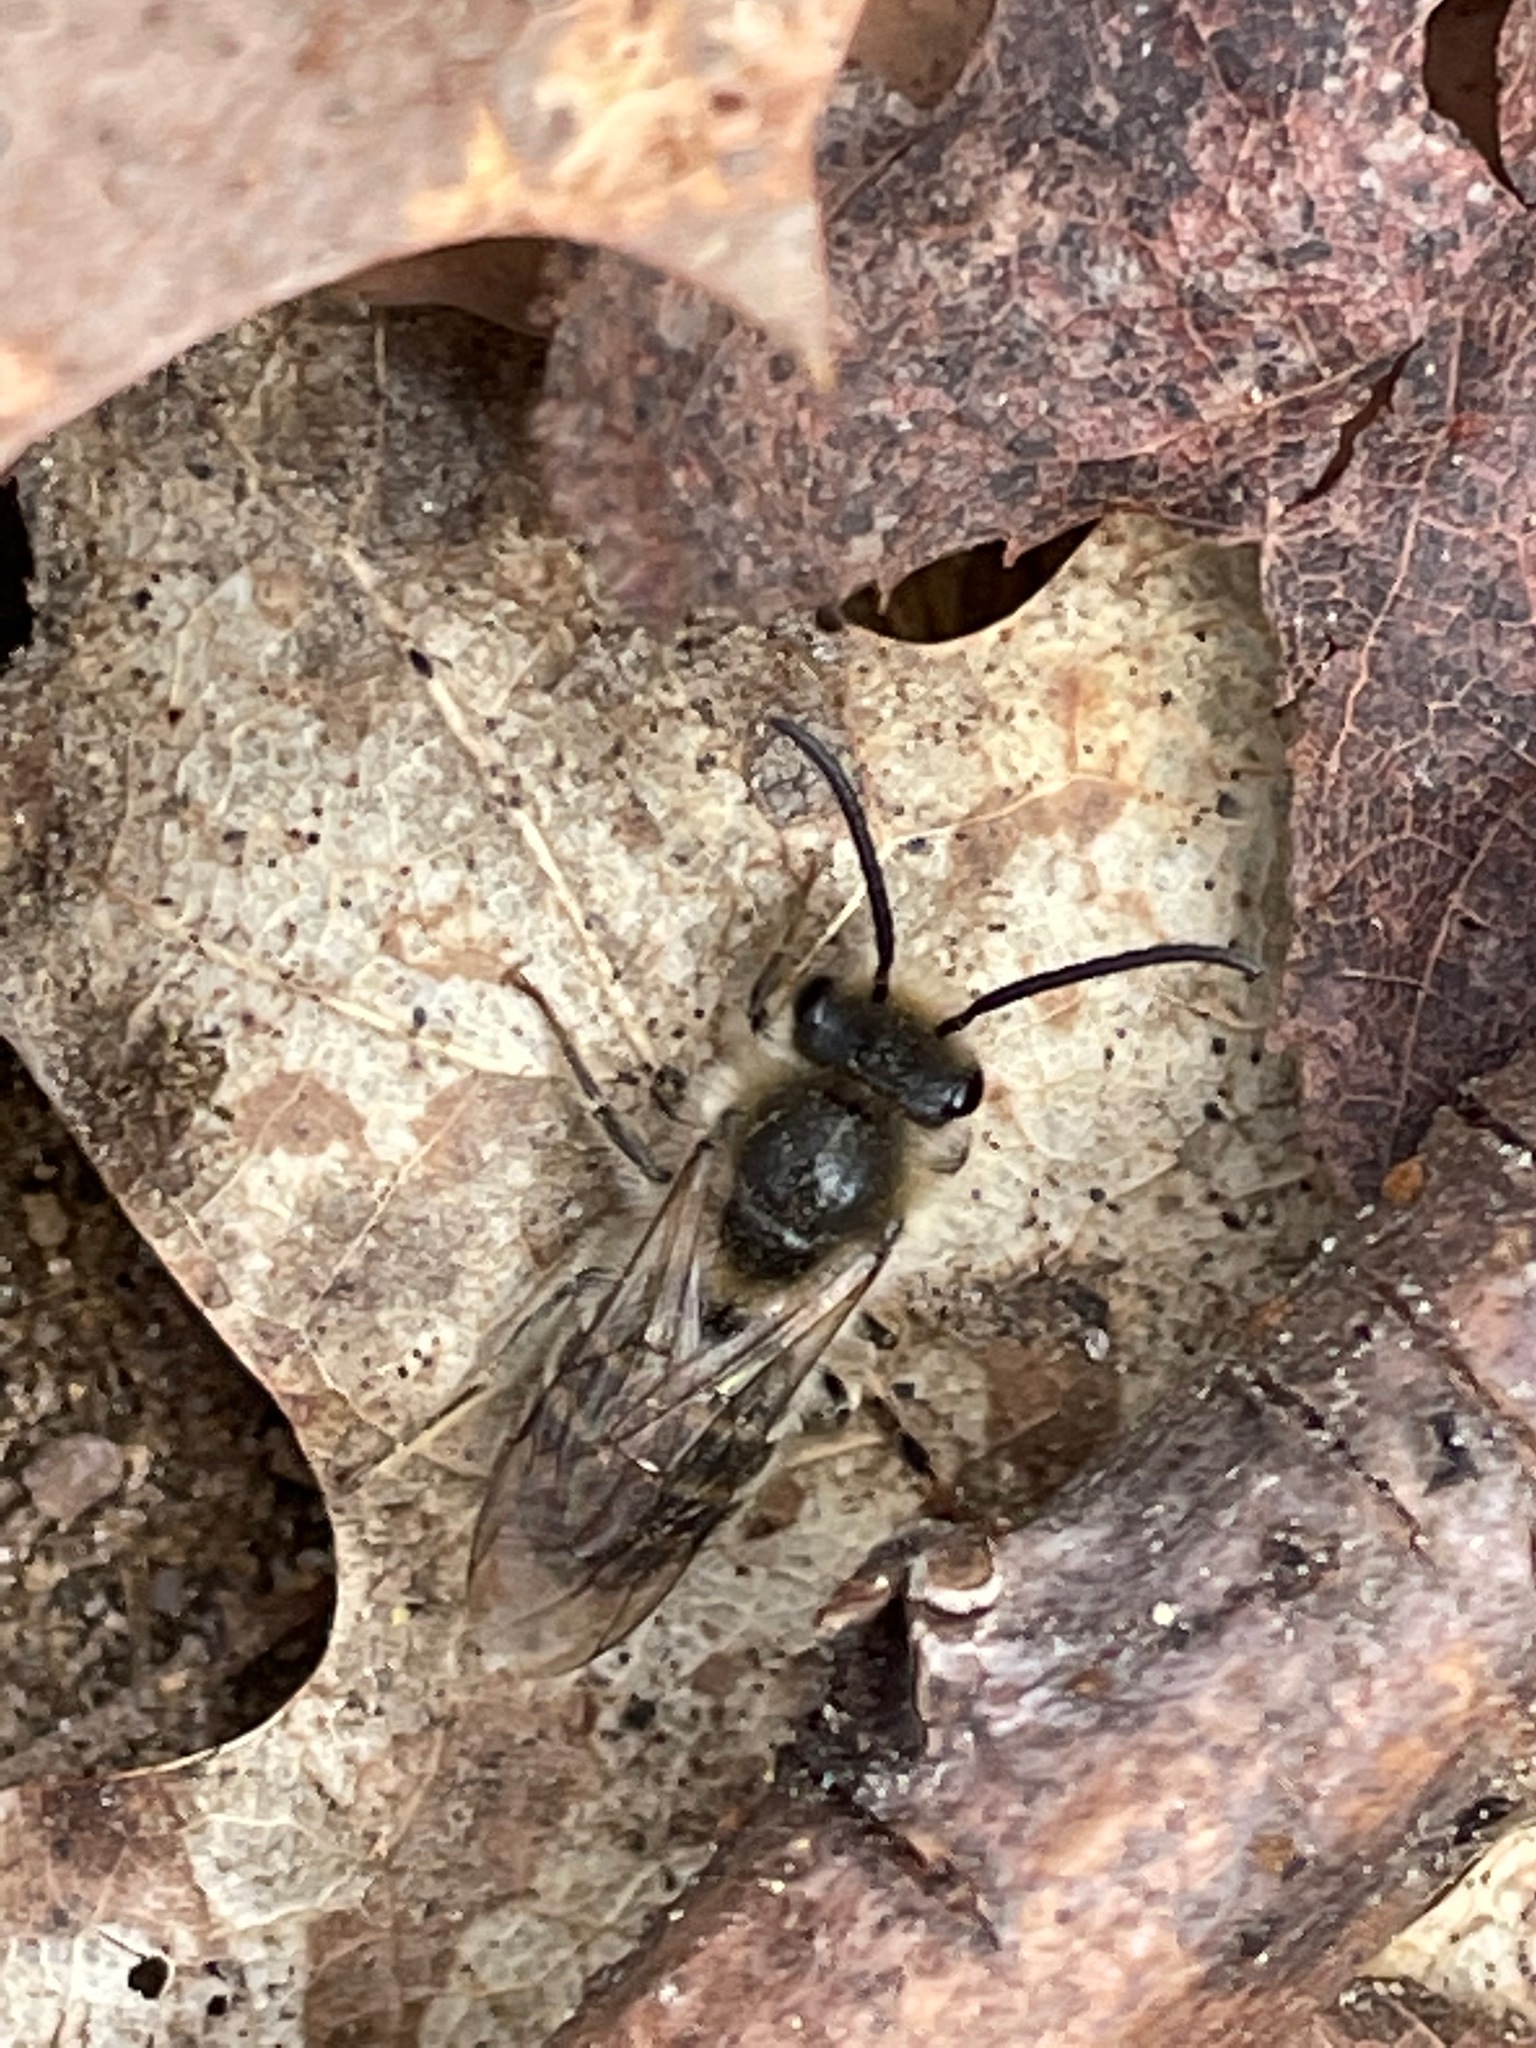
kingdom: Animalia
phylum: Arthropoda
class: Insecta
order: Hymenoptera
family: Colletidae
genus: Colletes
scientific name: Colletes inaequalis
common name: Unequal cellophane bee
